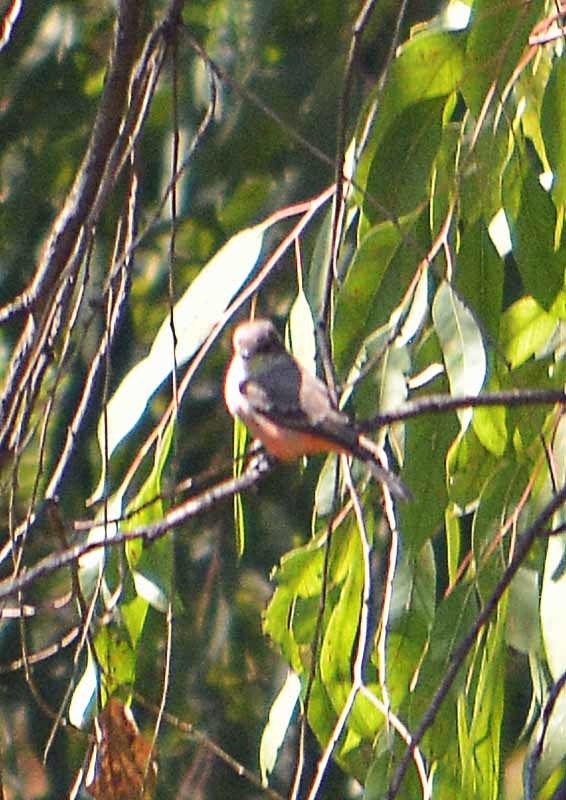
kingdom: Animalia
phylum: Chordata
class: Aves
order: Passeriformes
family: Tyrannidae
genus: Pyrocephalus
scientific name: Pyrocephalus rubinus
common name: Vermilion flycatcher
